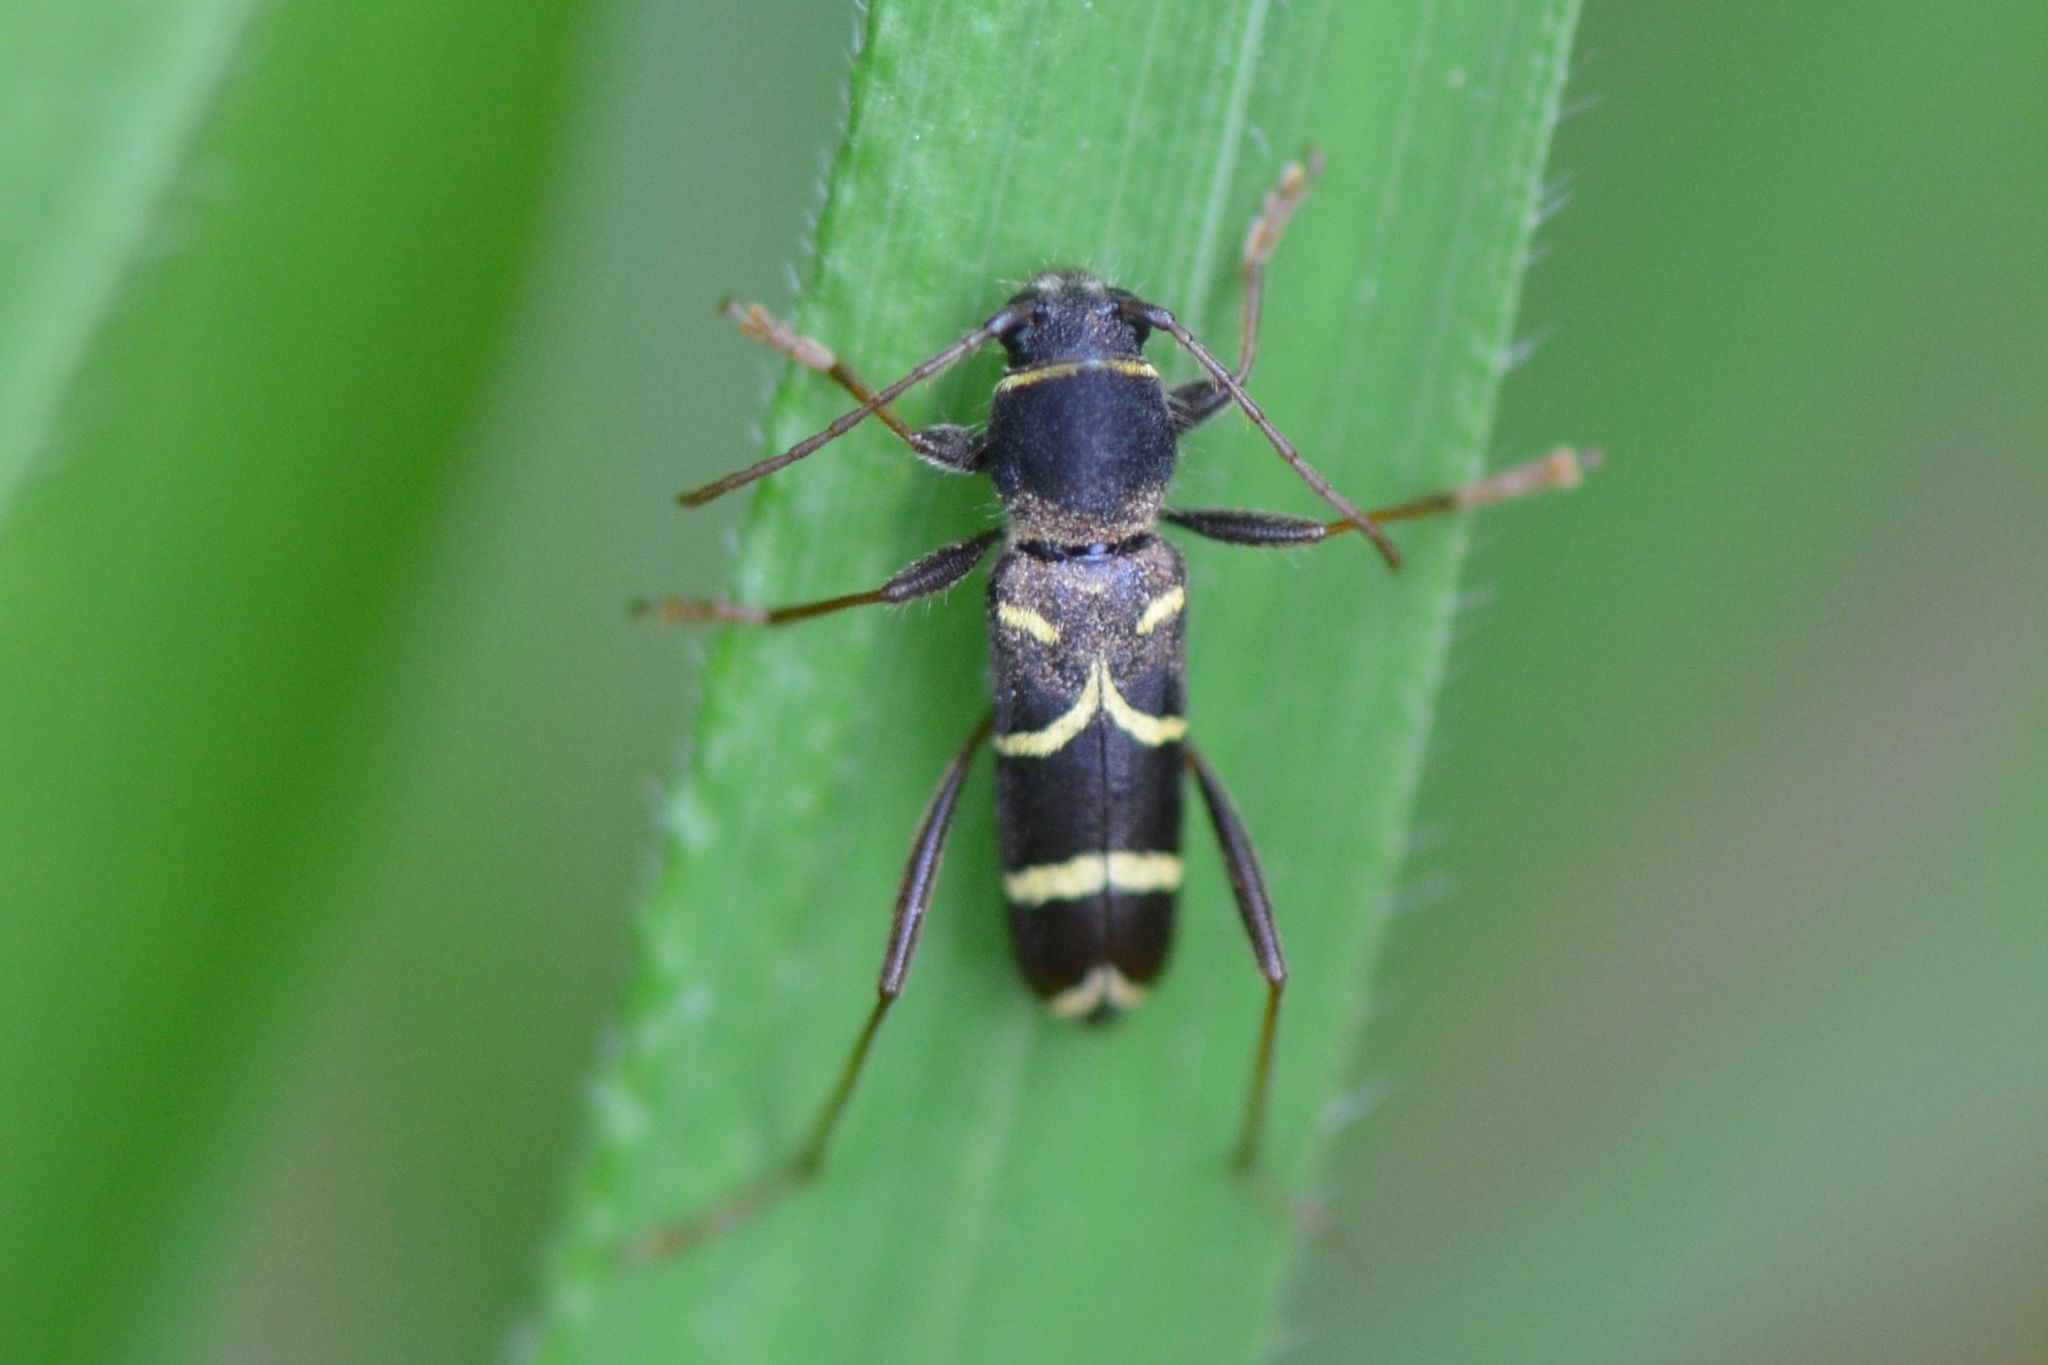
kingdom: Animalia
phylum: Arthropoda
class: Insecta
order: Coleoptera
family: Cerambycidae
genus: Clytus
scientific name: Clytus lama
